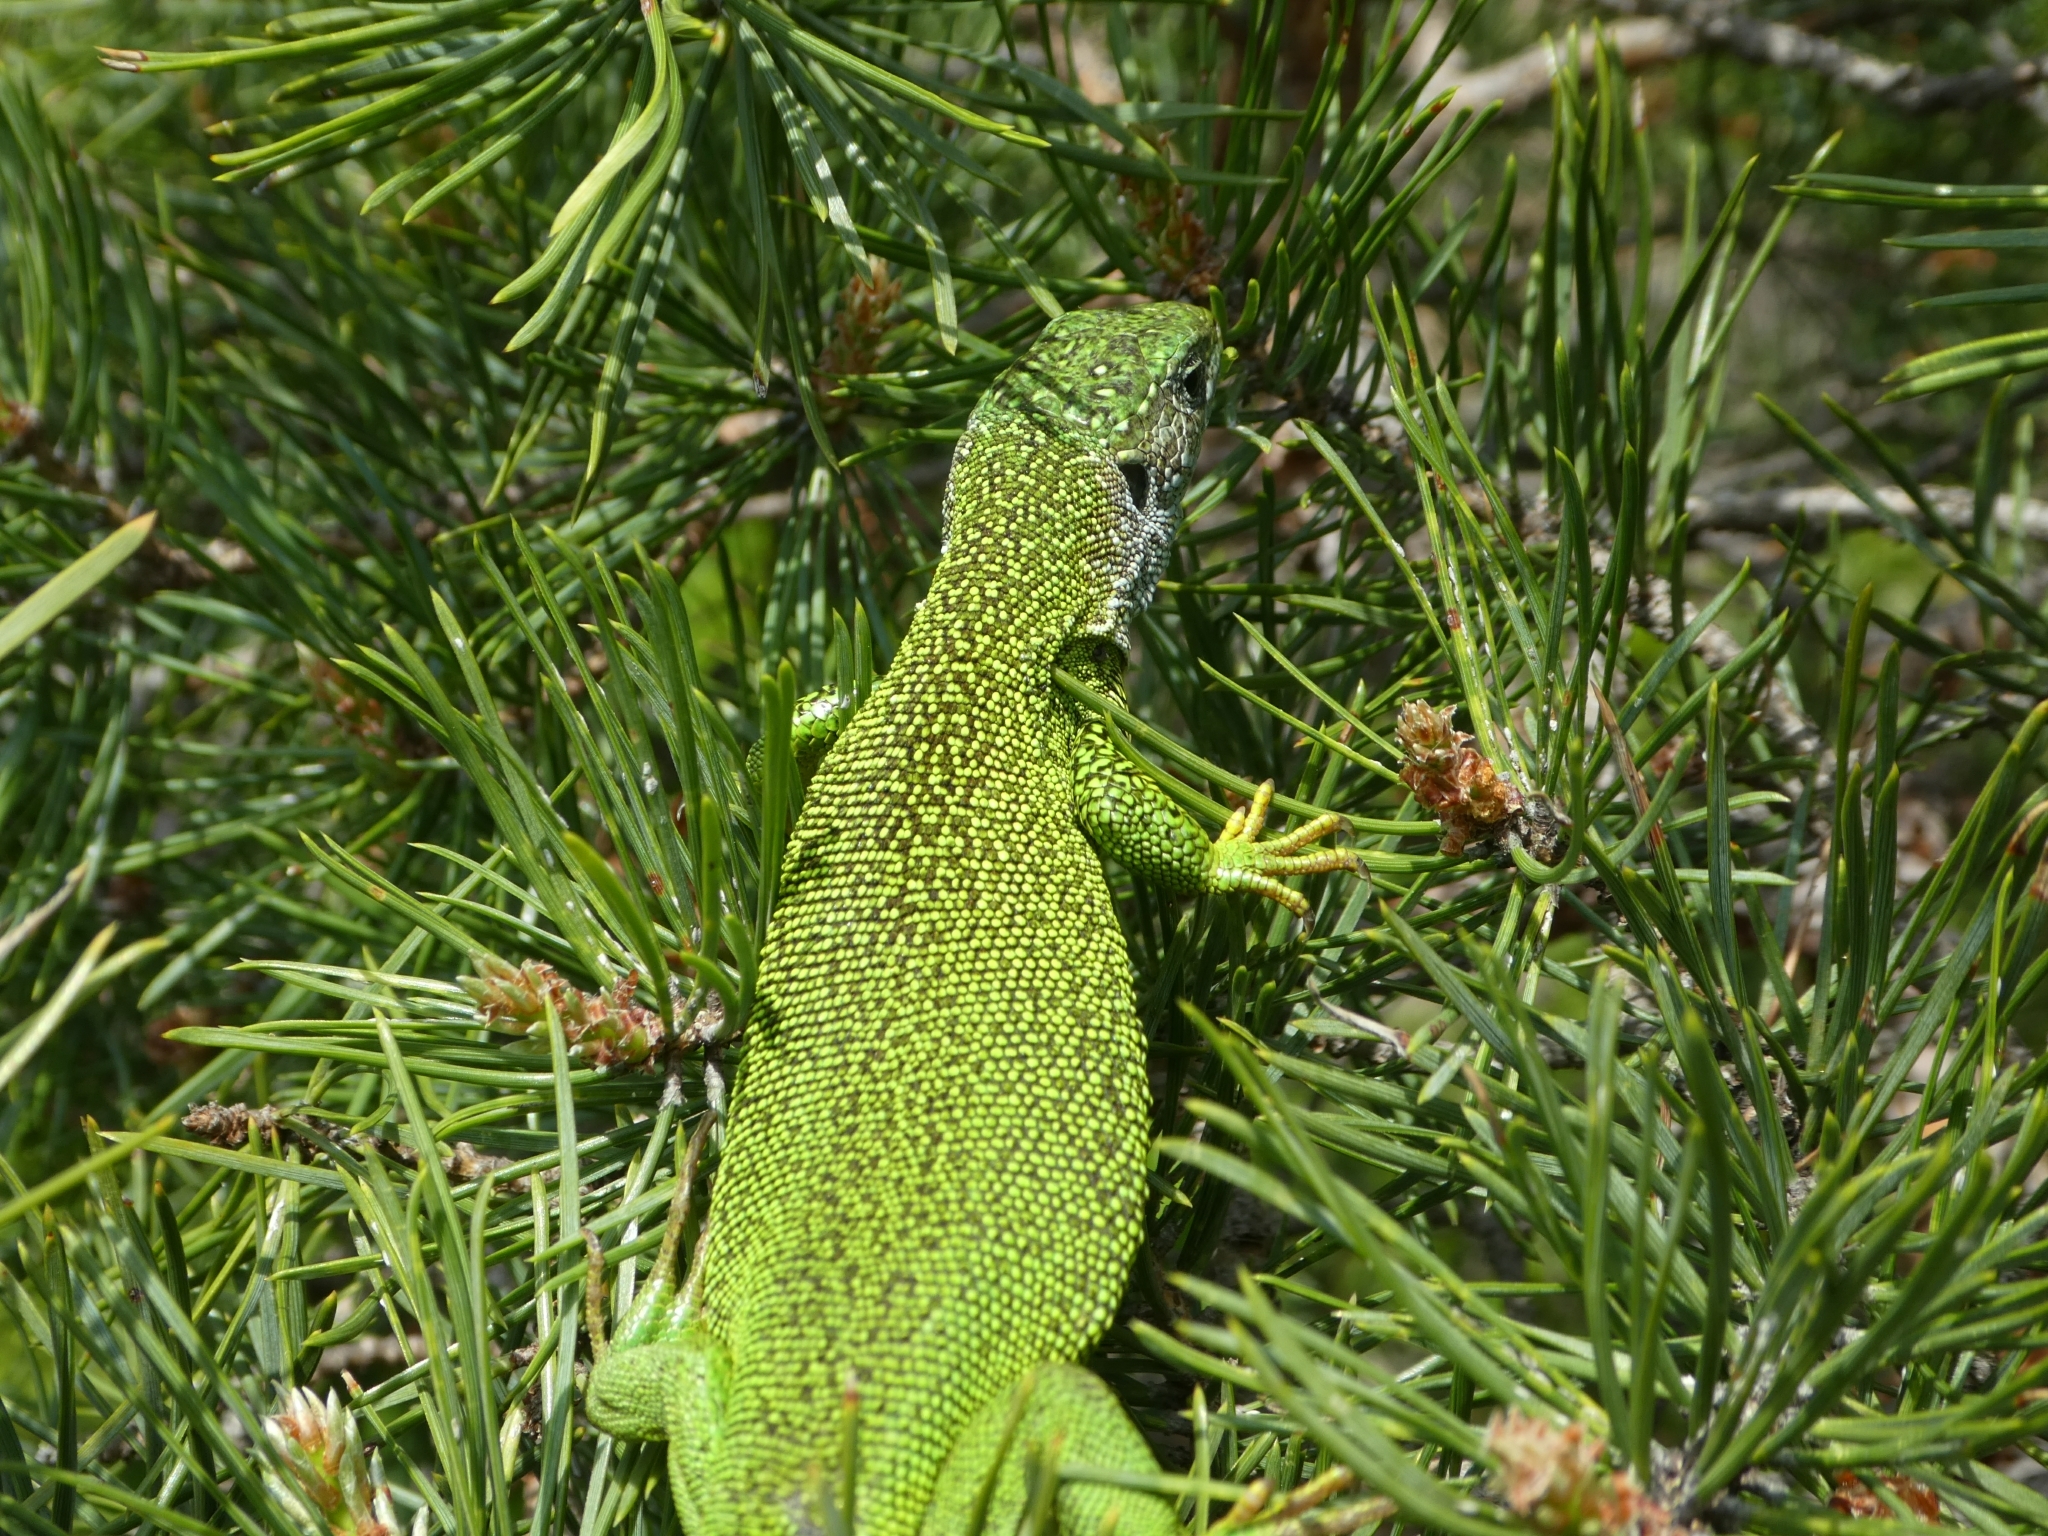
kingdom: Animalia
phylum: Chordata
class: Squamata
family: Lacertidae
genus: Lacerta
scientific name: Lacerta viridis
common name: European green lizard
